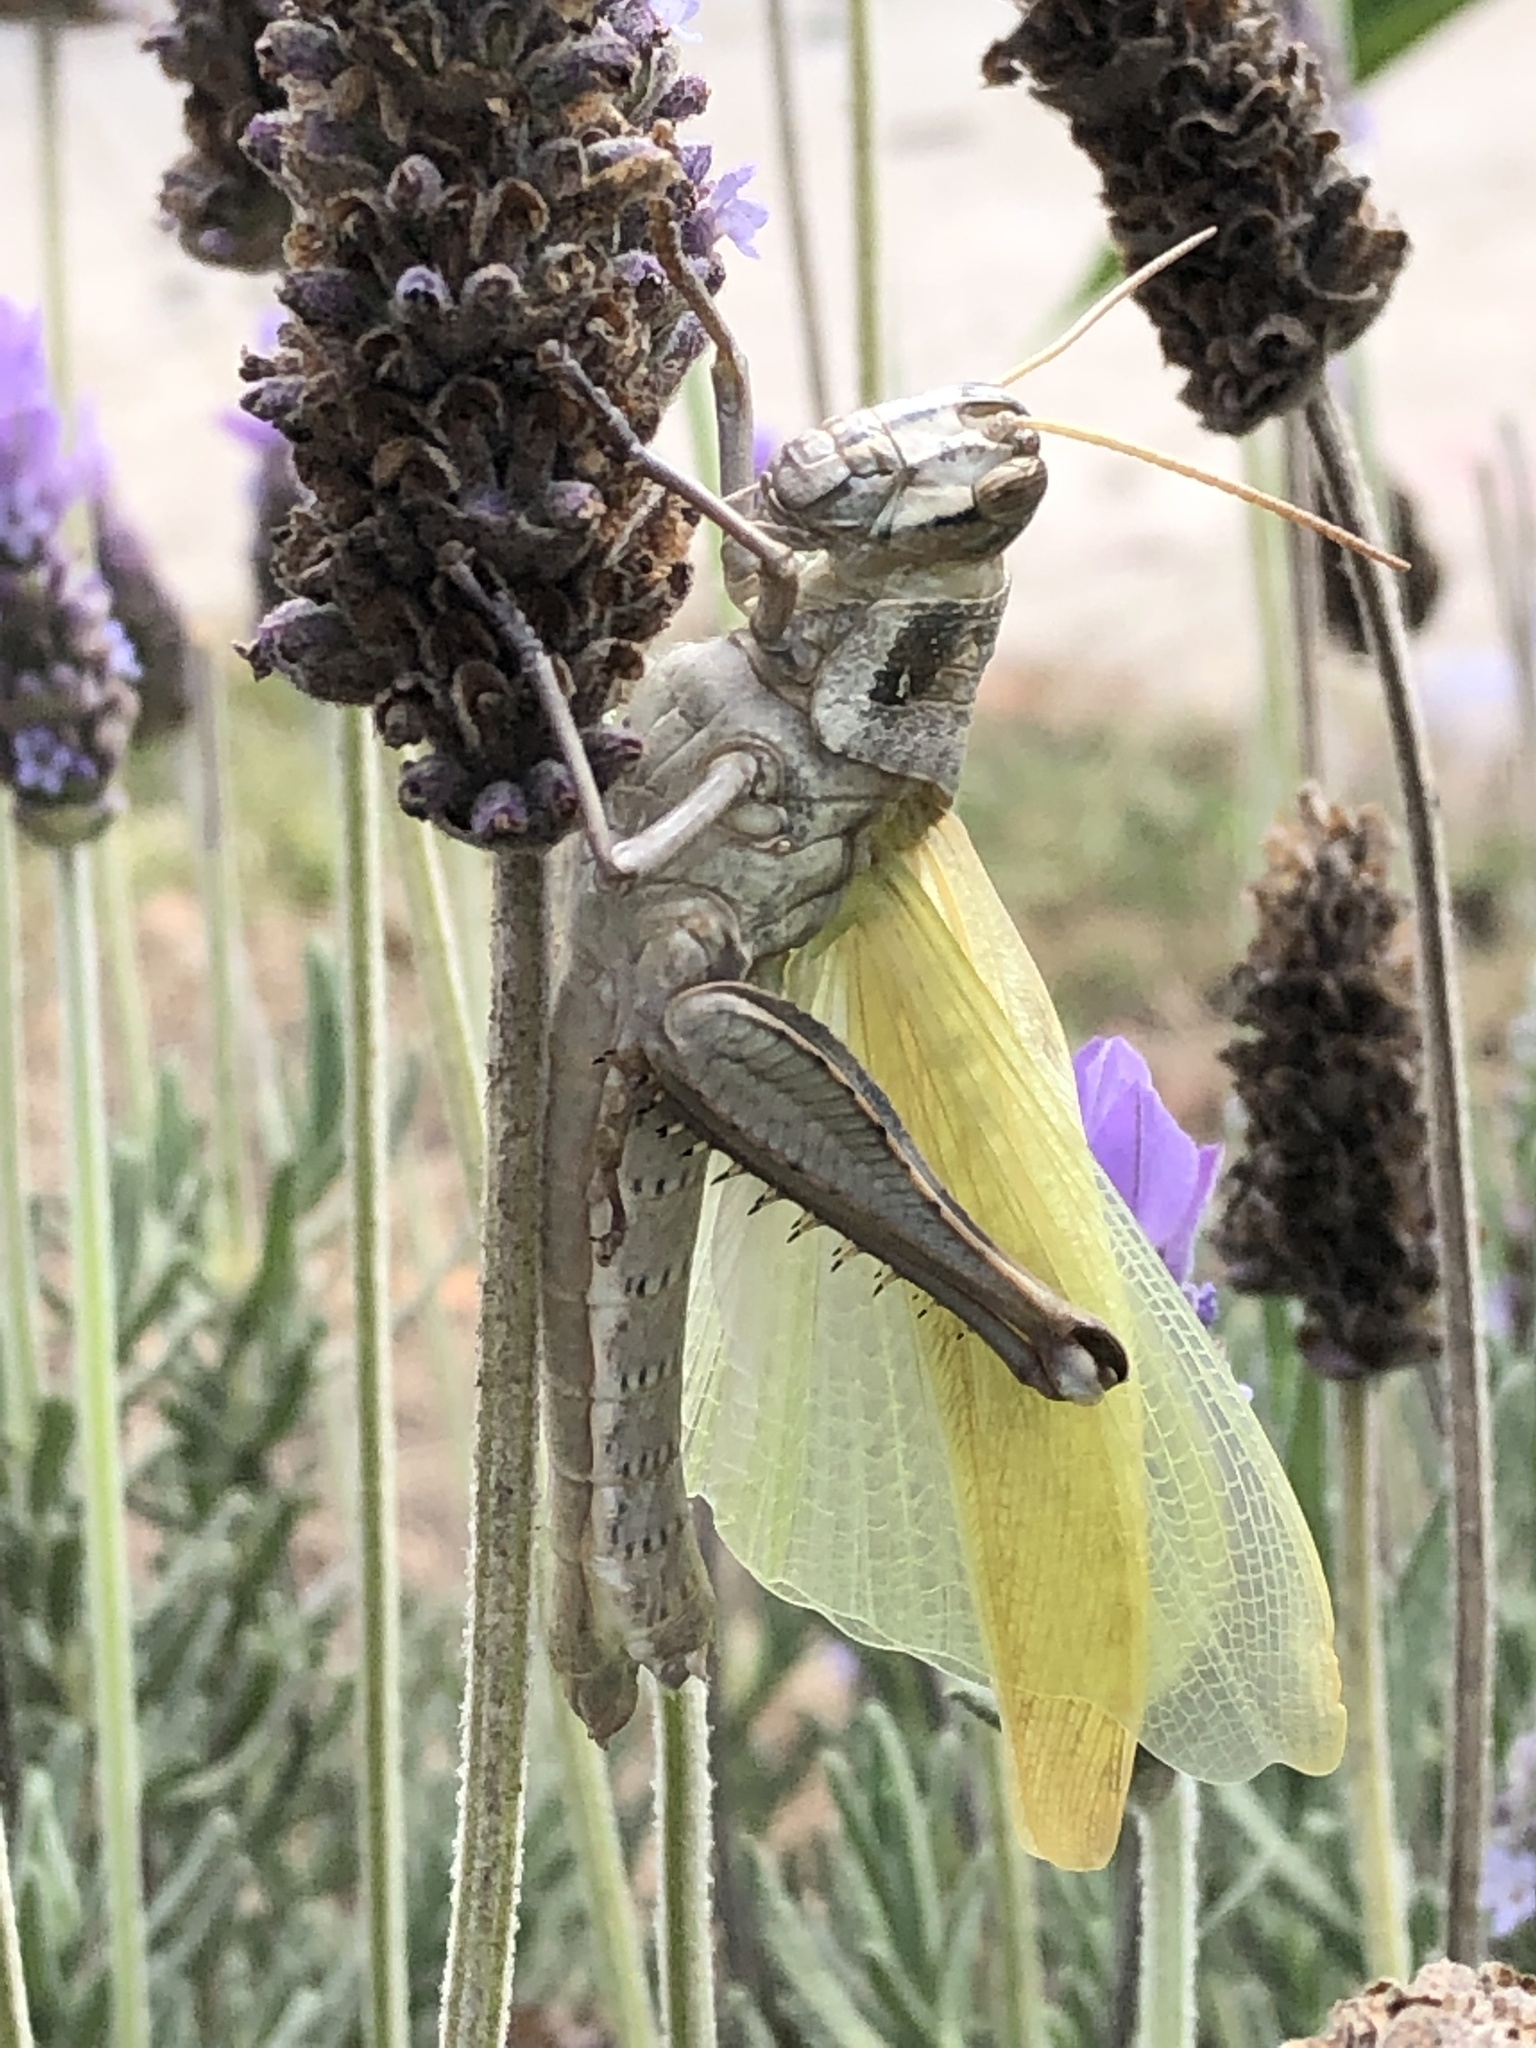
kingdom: Animalia
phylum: Arthropoda
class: Insecta
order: Orthoptera
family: Acrididae
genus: Schistocerca
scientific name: Schistocerca nitens
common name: Vagrant grasshopper
